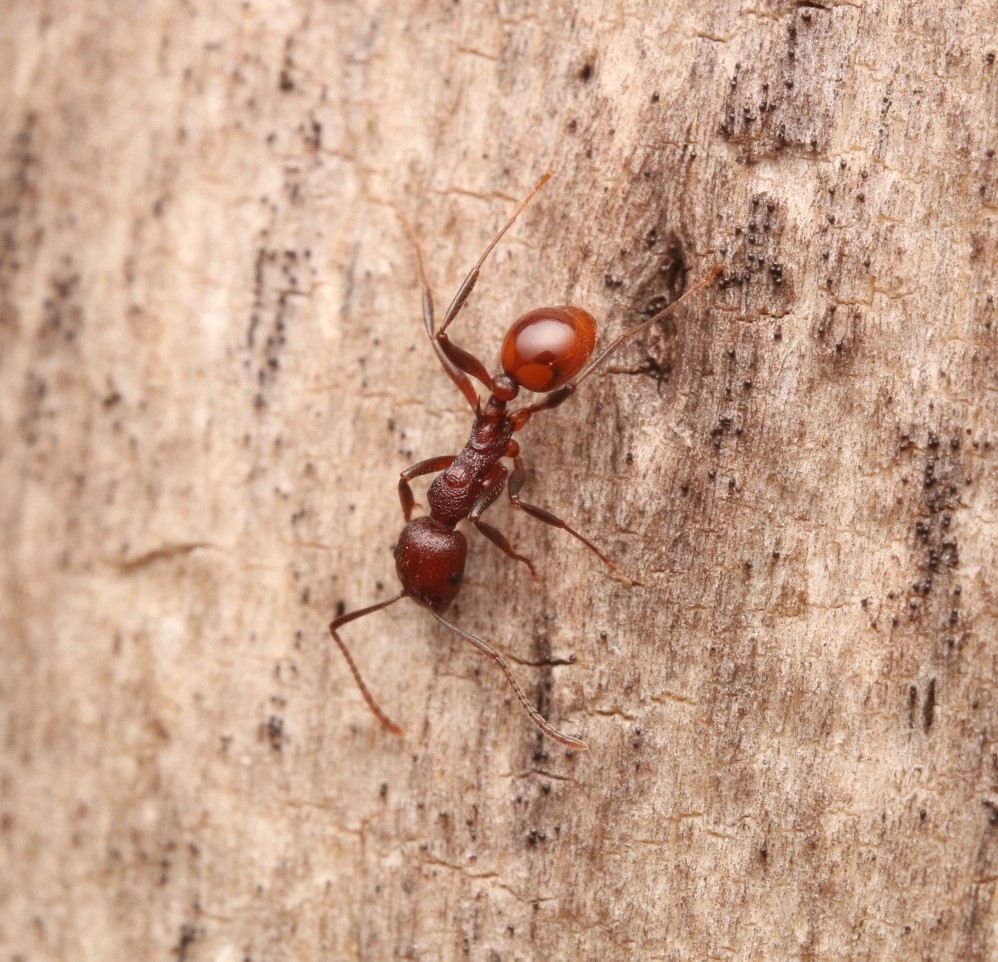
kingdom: Animalia
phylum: Arthropoda
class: Insecta
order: Hymenoptera
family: Formicidae
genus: Aphaenogaster
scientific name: Aphaenogaster tennesseensis
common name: Tennessee thread-waisted ant
